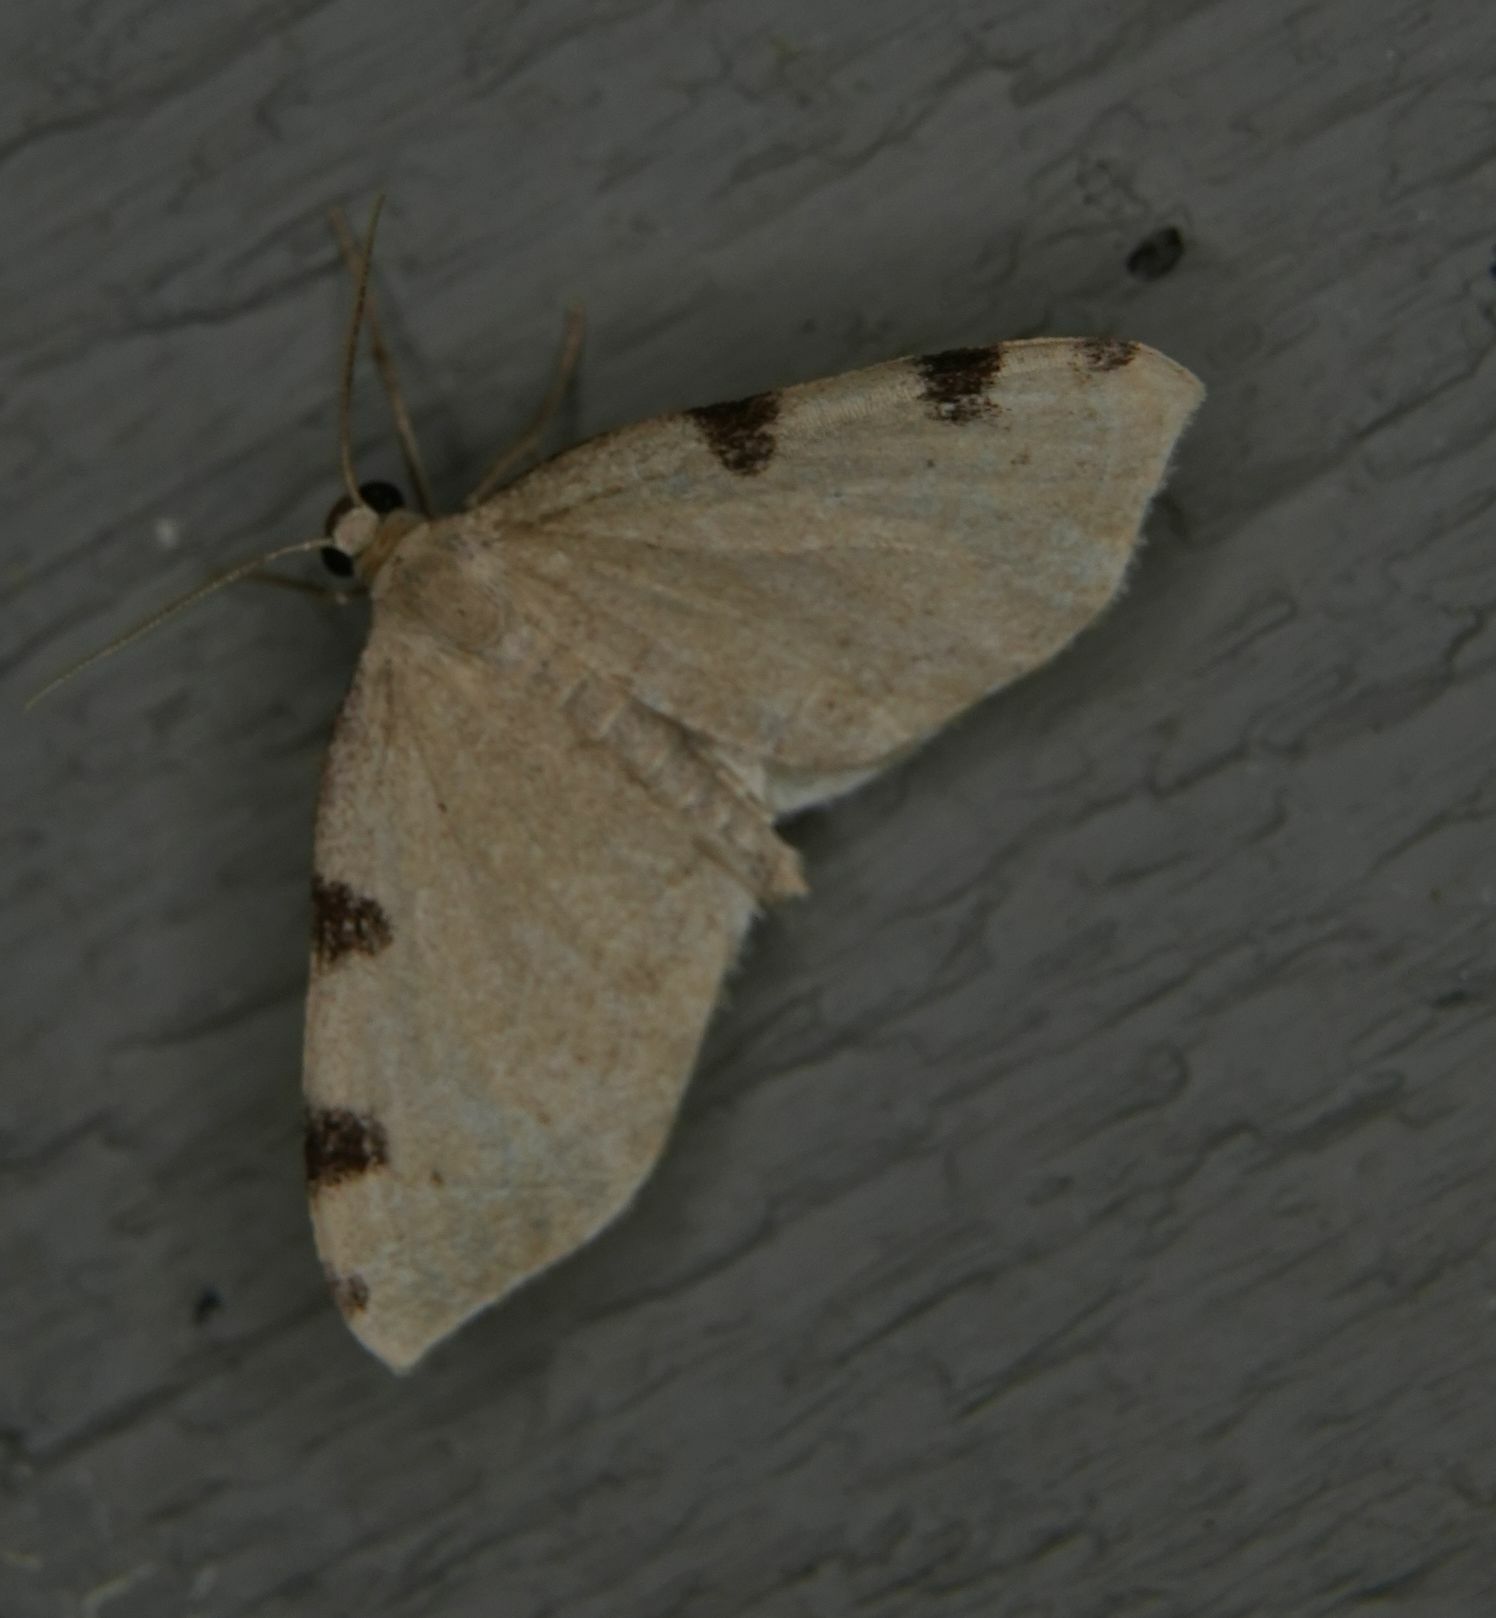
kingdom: Animalia
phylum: Arthropoda
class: Insecta
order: Lepidoptera
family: Geometridae
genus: Heterophleps
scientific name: Heterophleps triguttaria
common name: Three-spotted fillip
